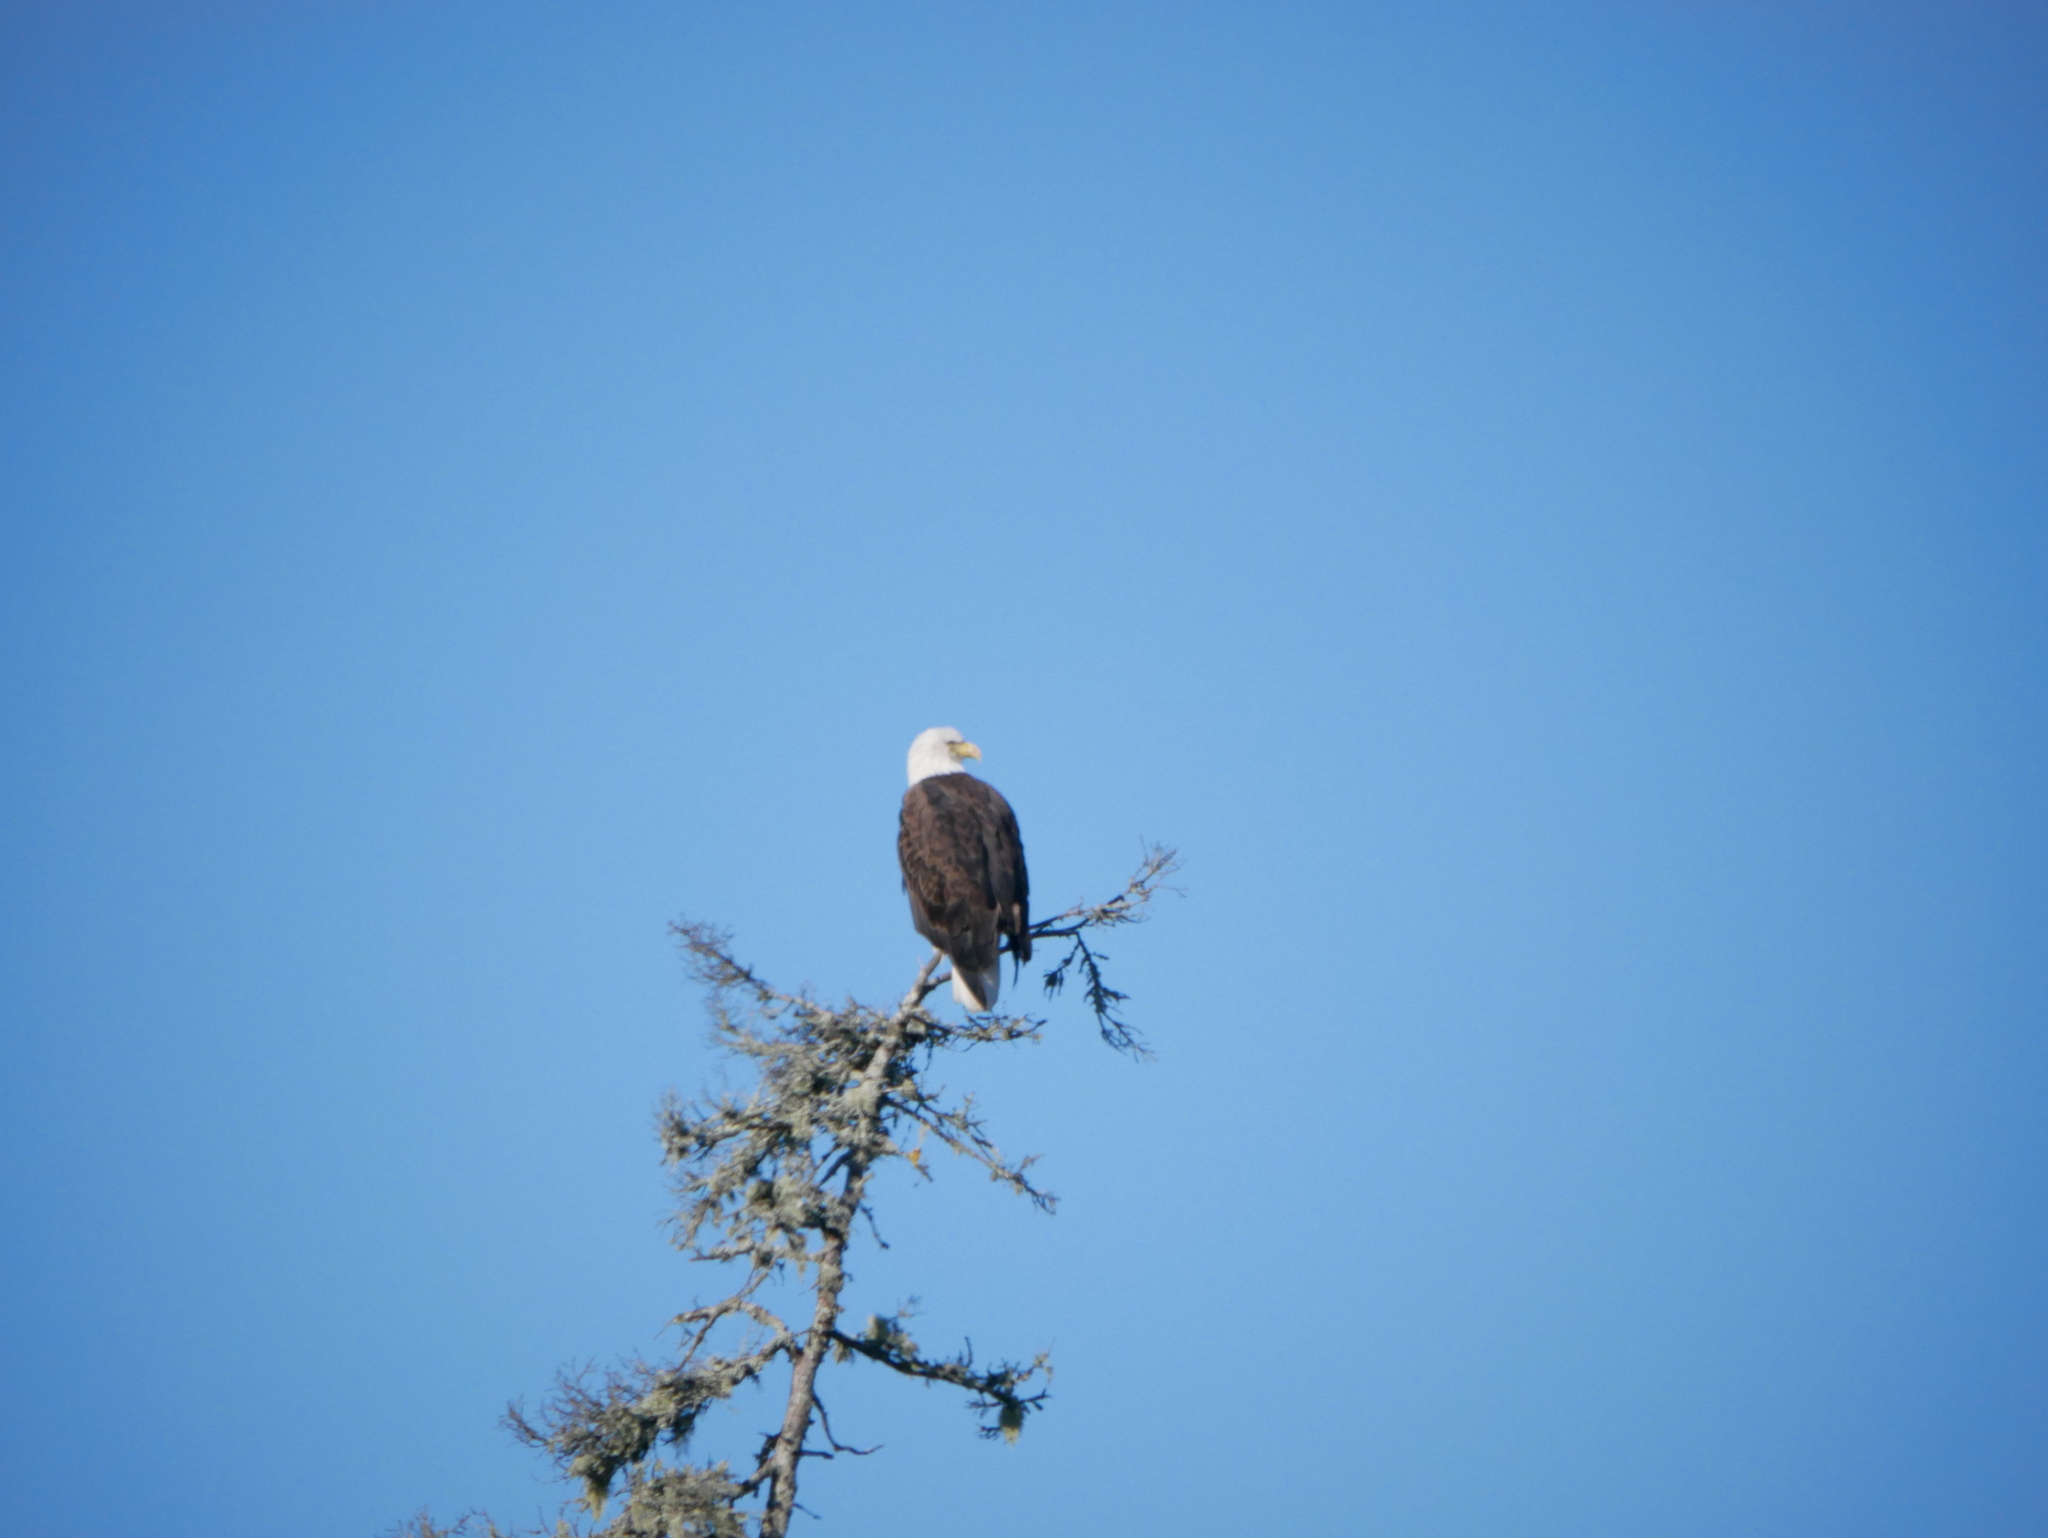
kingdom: Animalia
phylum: Chordata
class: Aves
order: Accipitriformes
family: Accipitridae
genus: Haliaeetus
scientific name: Haliaeetus leucocephalus
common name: Bald eagle
